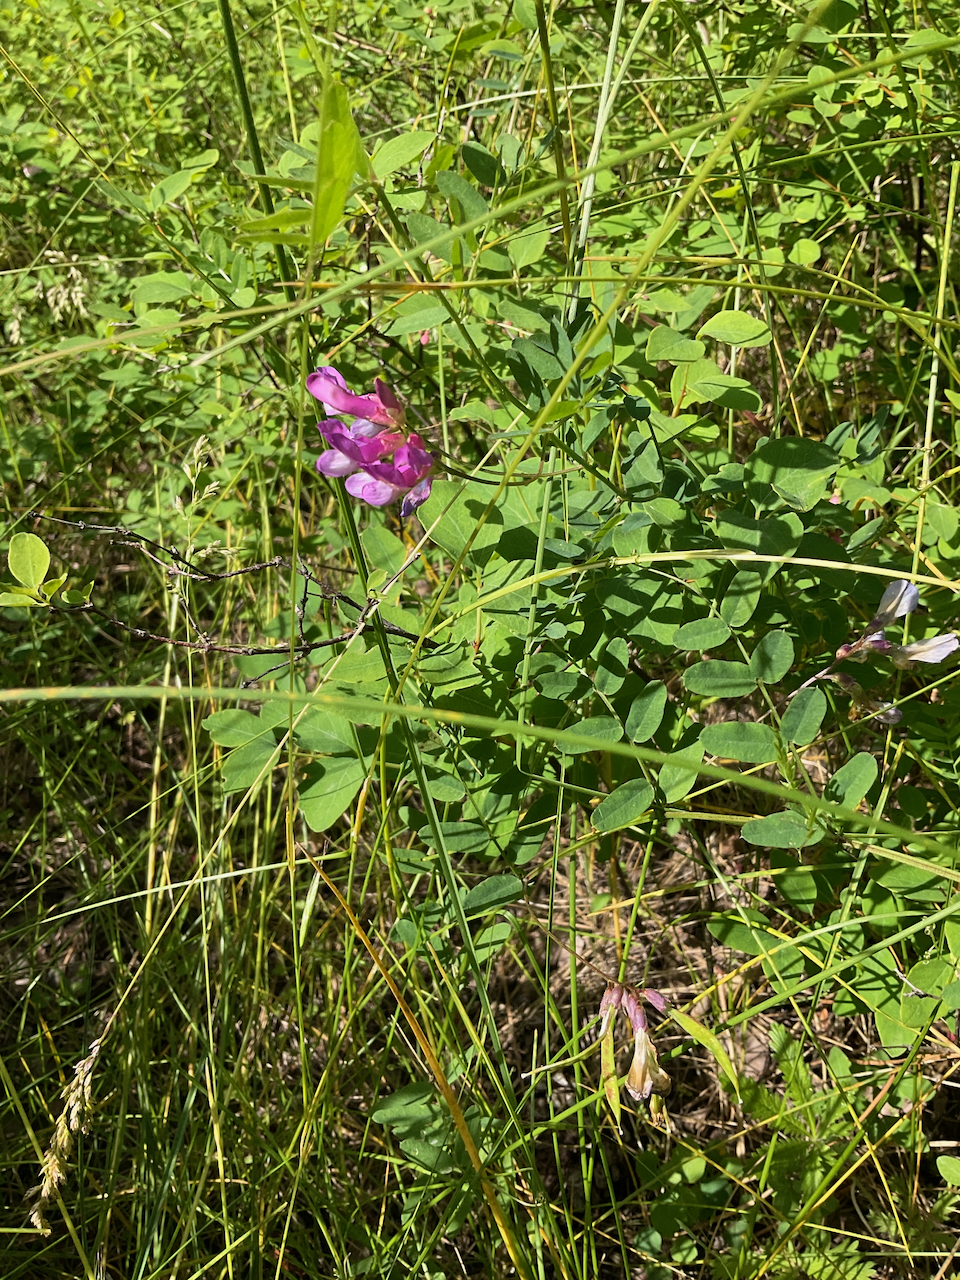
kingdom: Plantae
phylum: Tracheophyta
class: Magnoliopsida
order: Fabales
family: Fabaceae
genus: Vicia
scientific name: Vicia americana
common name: American vetch
